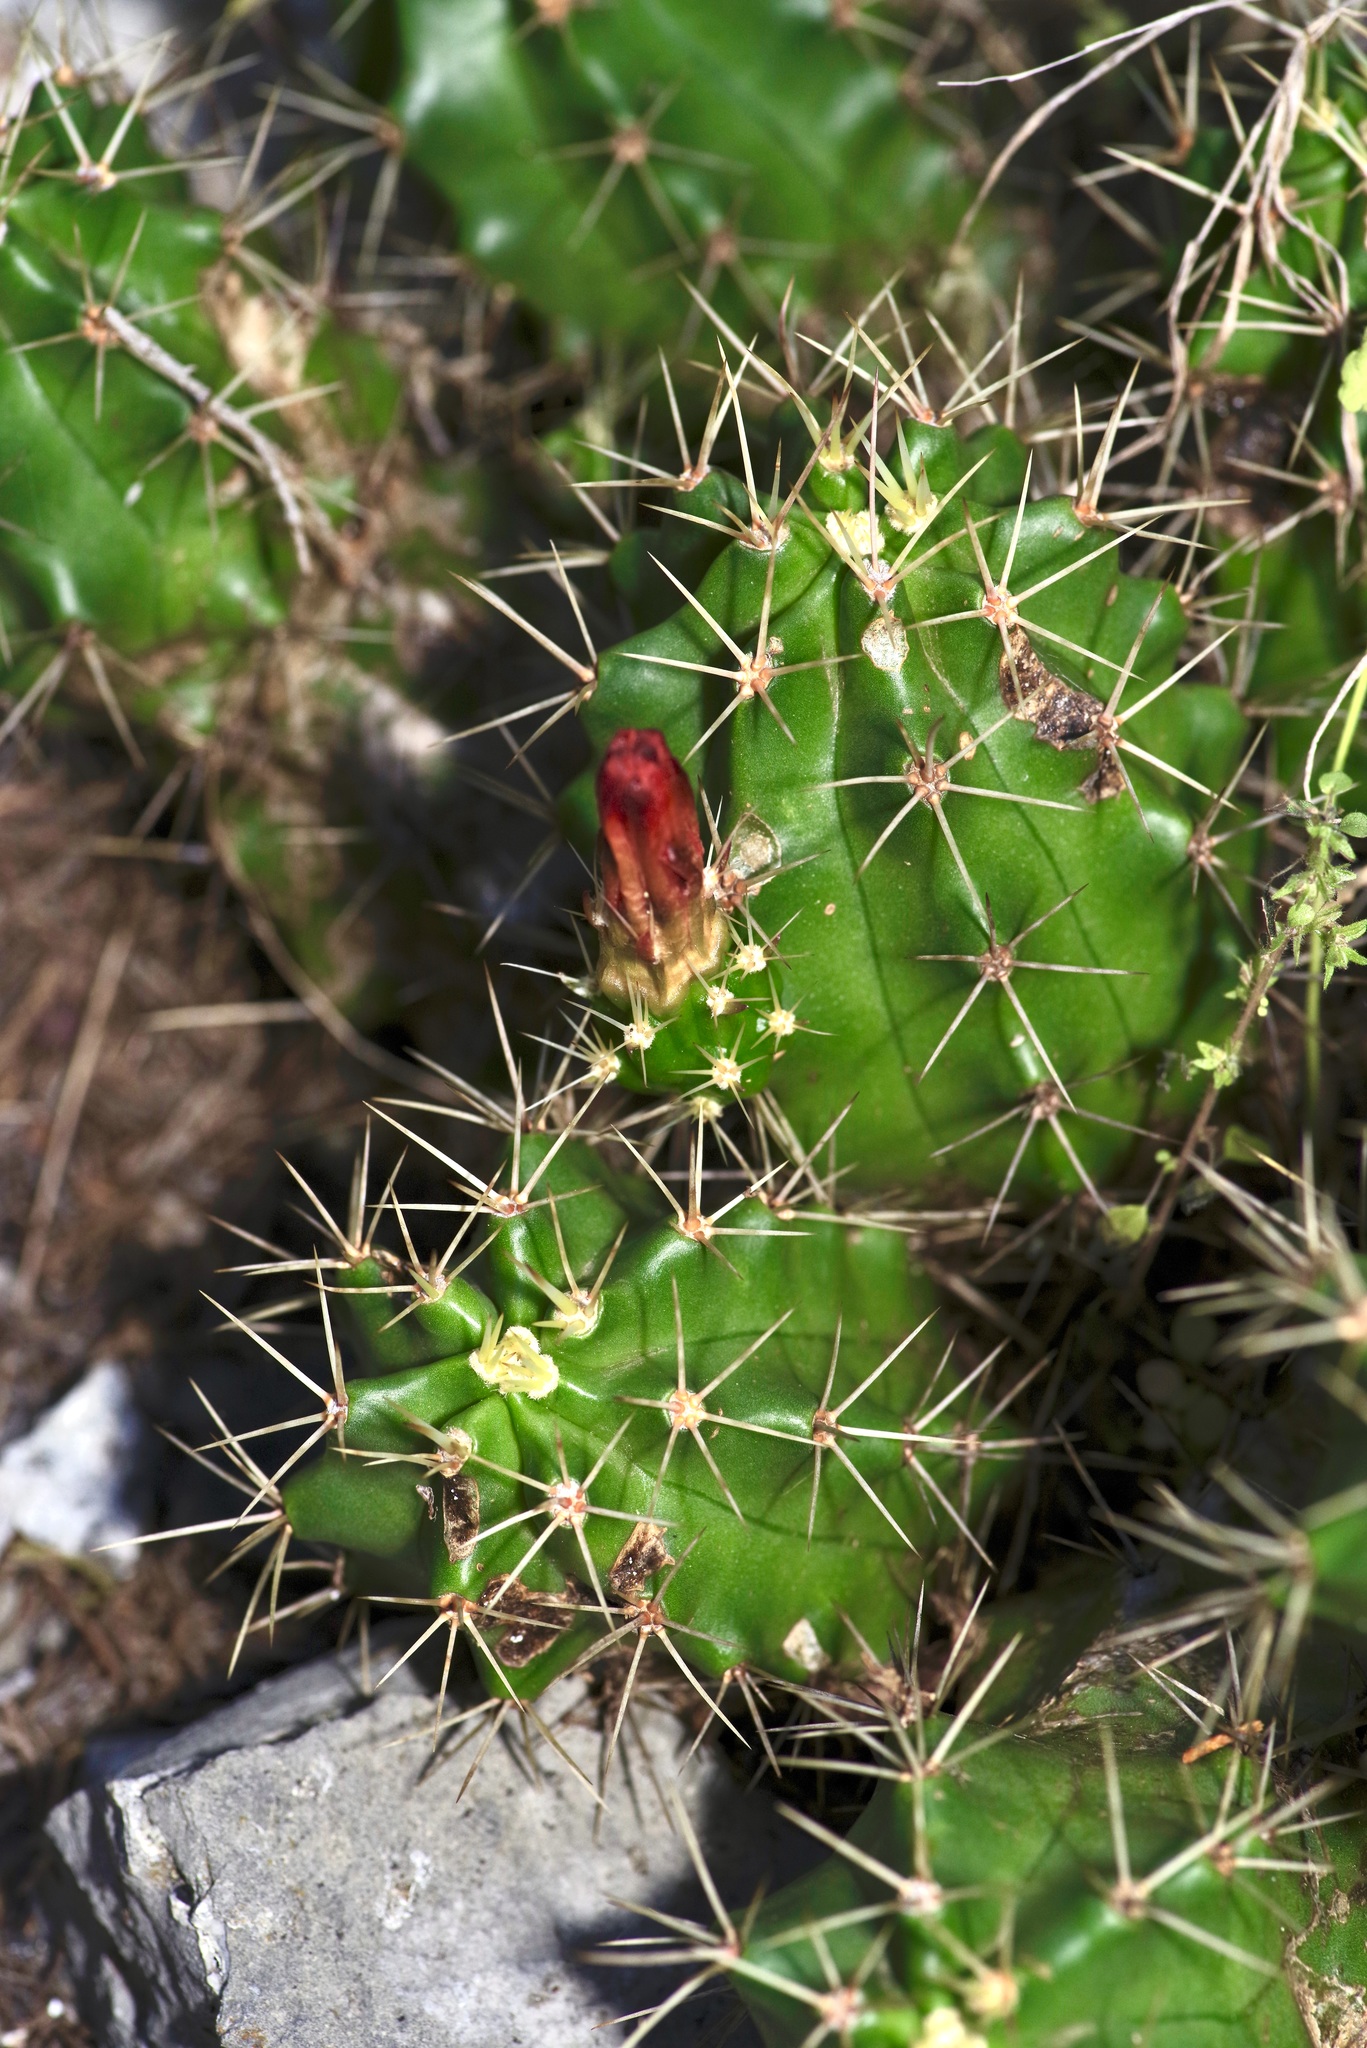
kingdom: Plantae
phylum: Tracheophyta
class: Magnoliopsida
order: Caryophyllales
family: Cactaceae
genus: Echinocereus
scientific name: Echinocereus coccineus
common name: Scarlet hedgehog cactus
